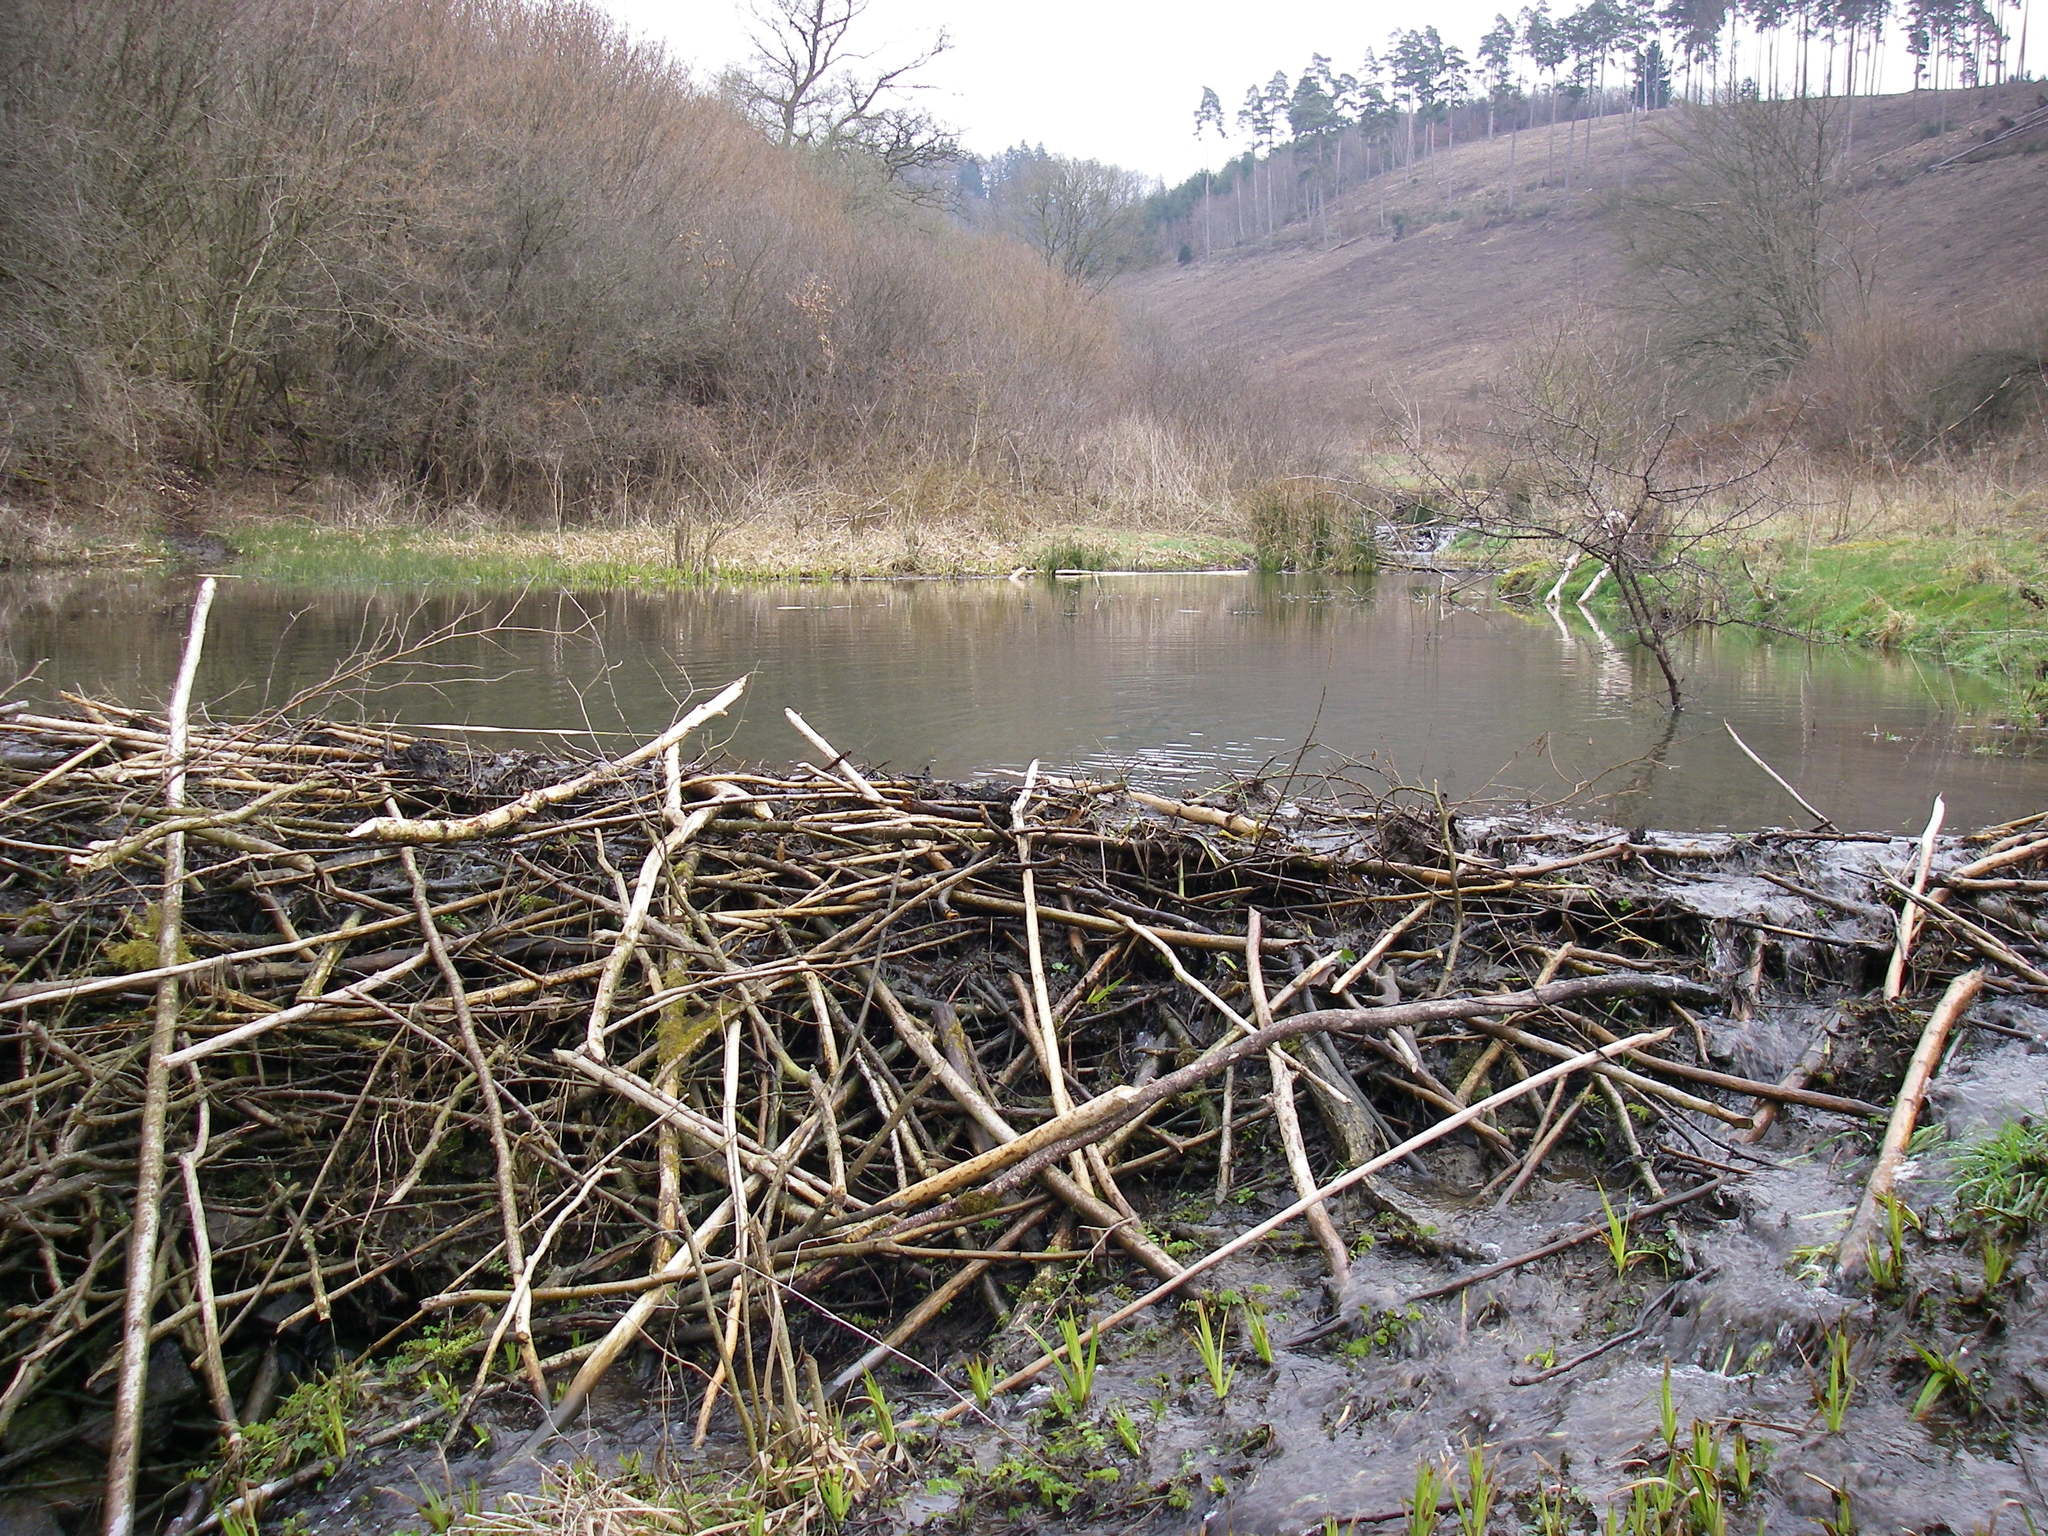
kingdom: Animalia
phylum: Chordata
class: Mammalia
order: Rodentia
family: Castoridae
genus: Castor
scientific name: Castor fiber
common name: Eurasian beaver
